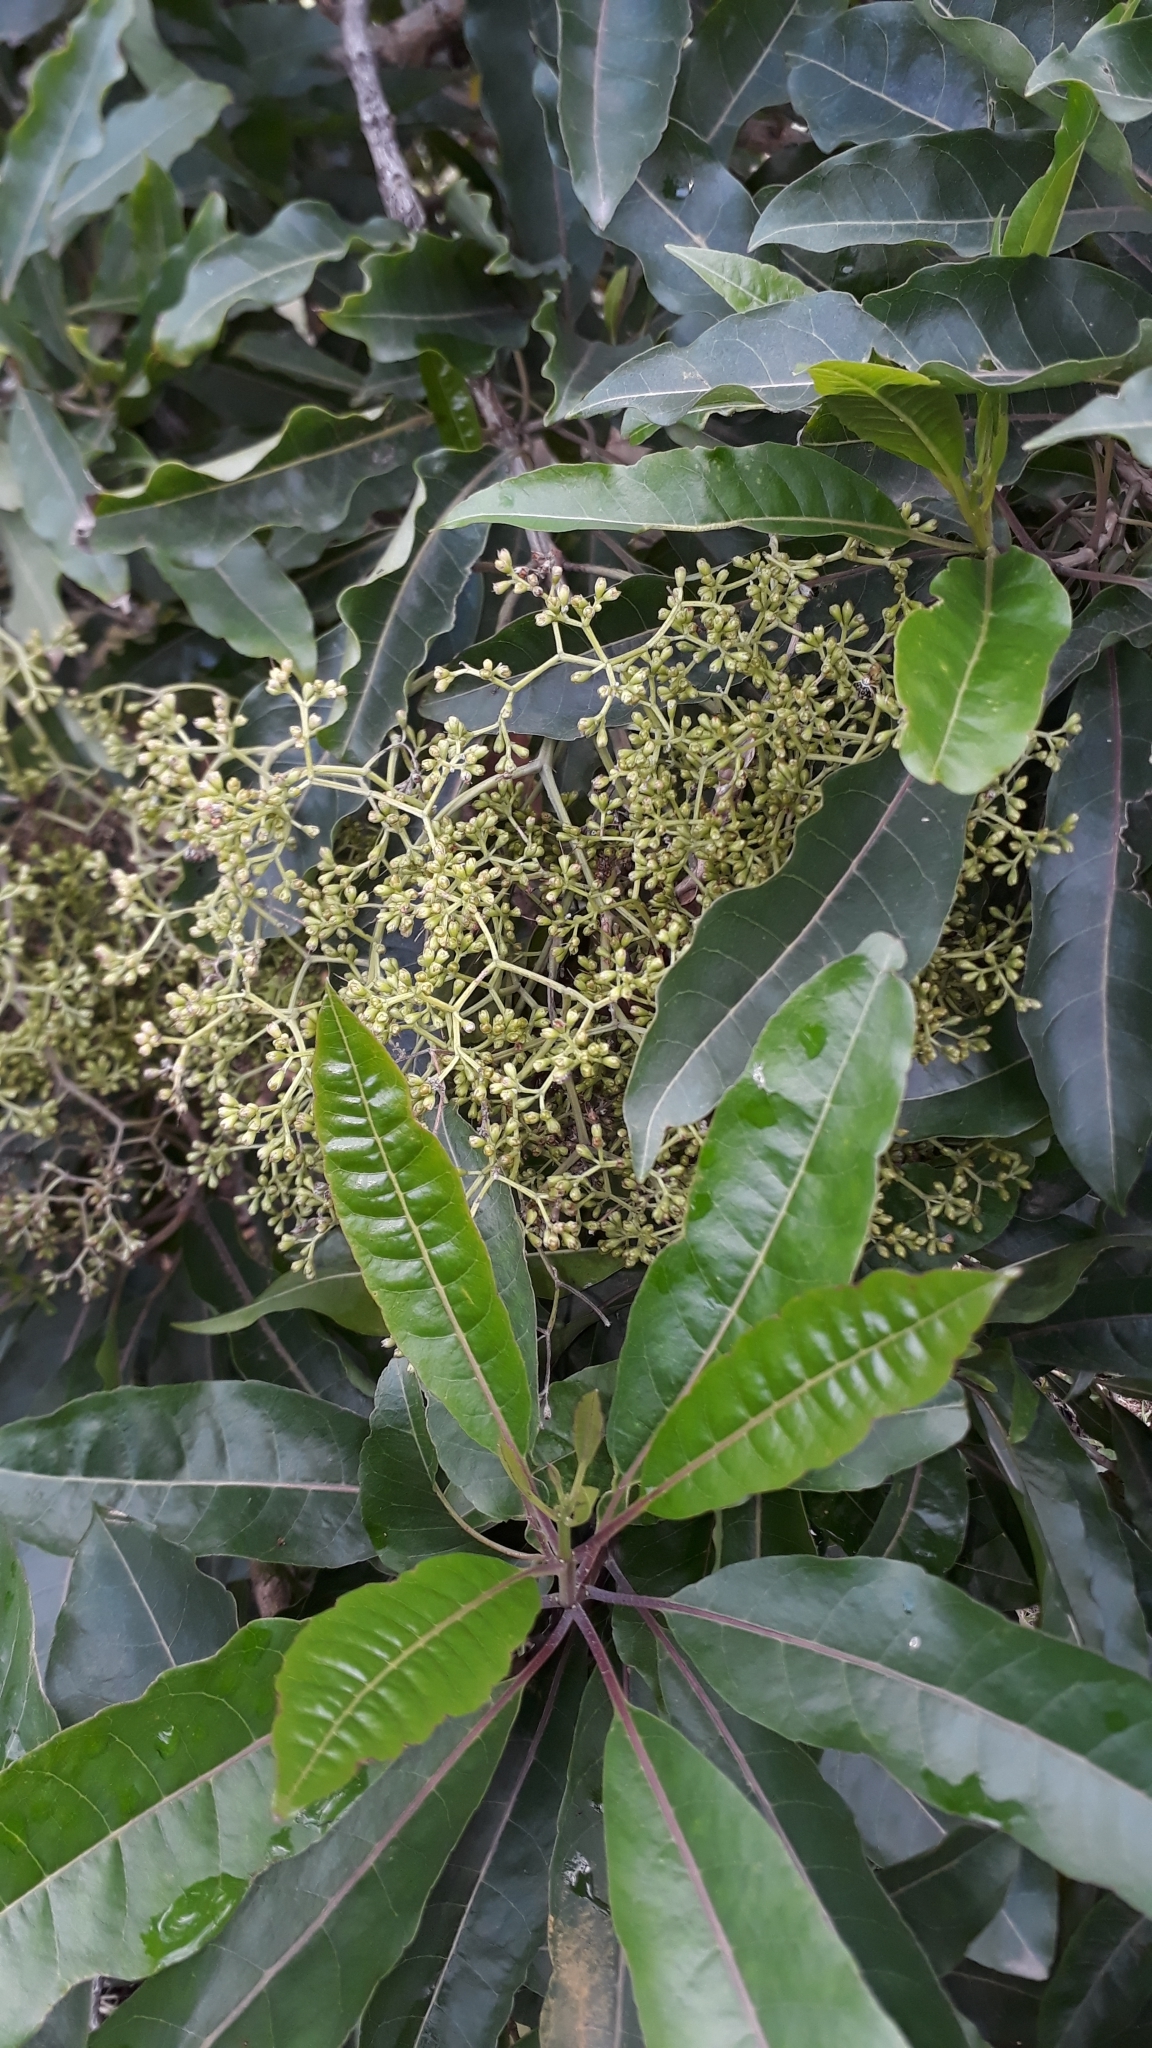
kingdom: Plantae
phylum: Tracheophyta
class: Magnoliopsida
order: Lamiales
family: Stilbaceae
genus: Nuxia
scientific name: Nuxia floribunda
